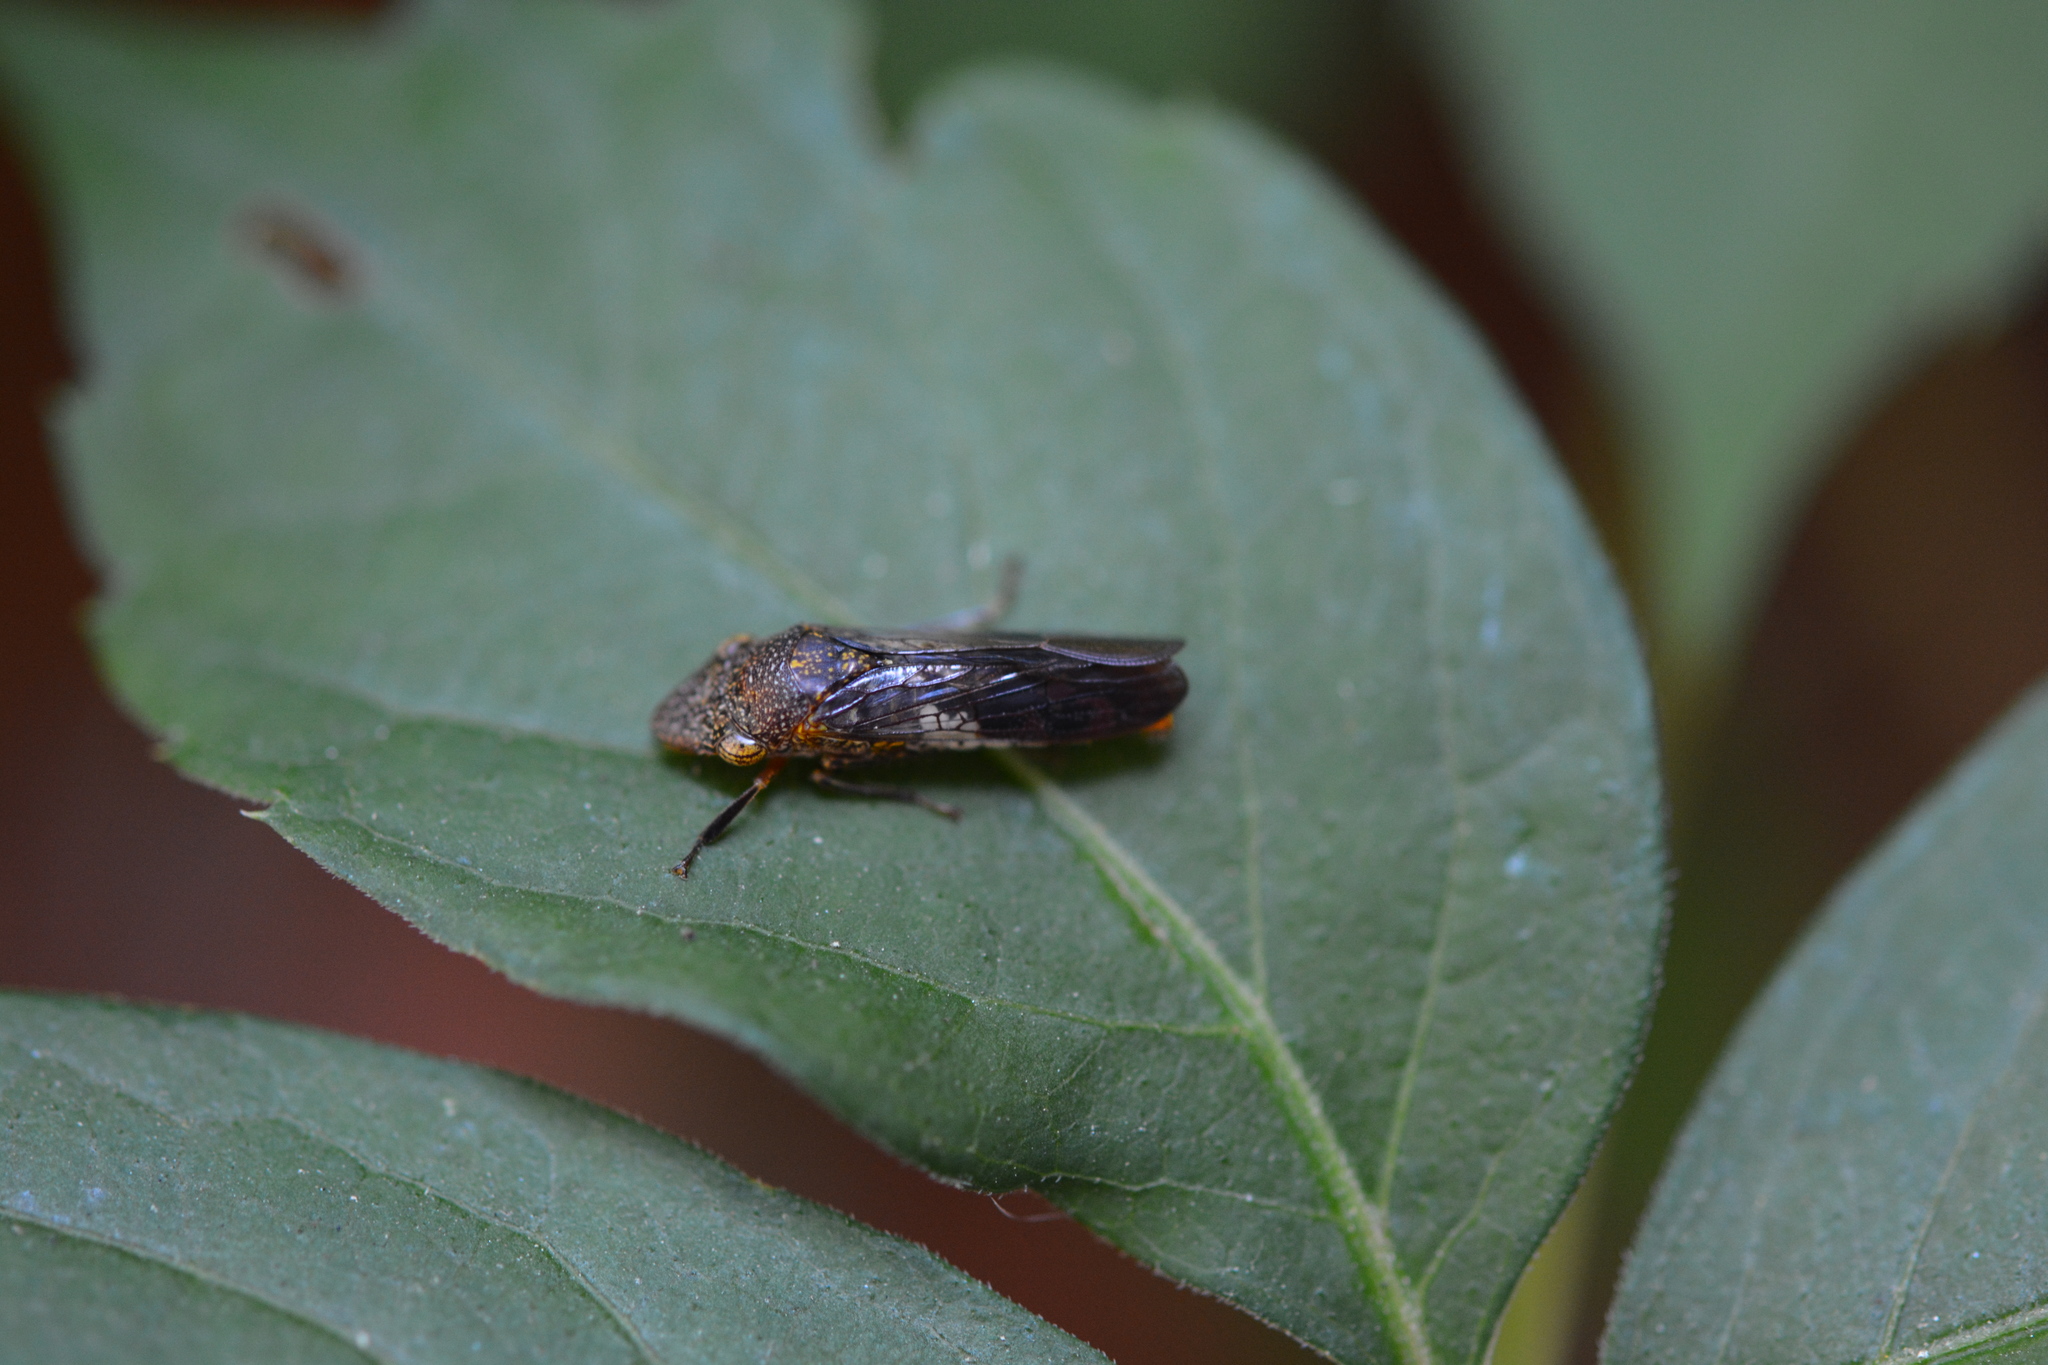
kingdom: Animalia
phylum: Arthropoda
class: Insecta
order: Hemiptera
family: Cicadellidae
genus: Homalodisca
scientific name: Homalodisca vitripennis
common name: Glassy-winged sharpshooter
